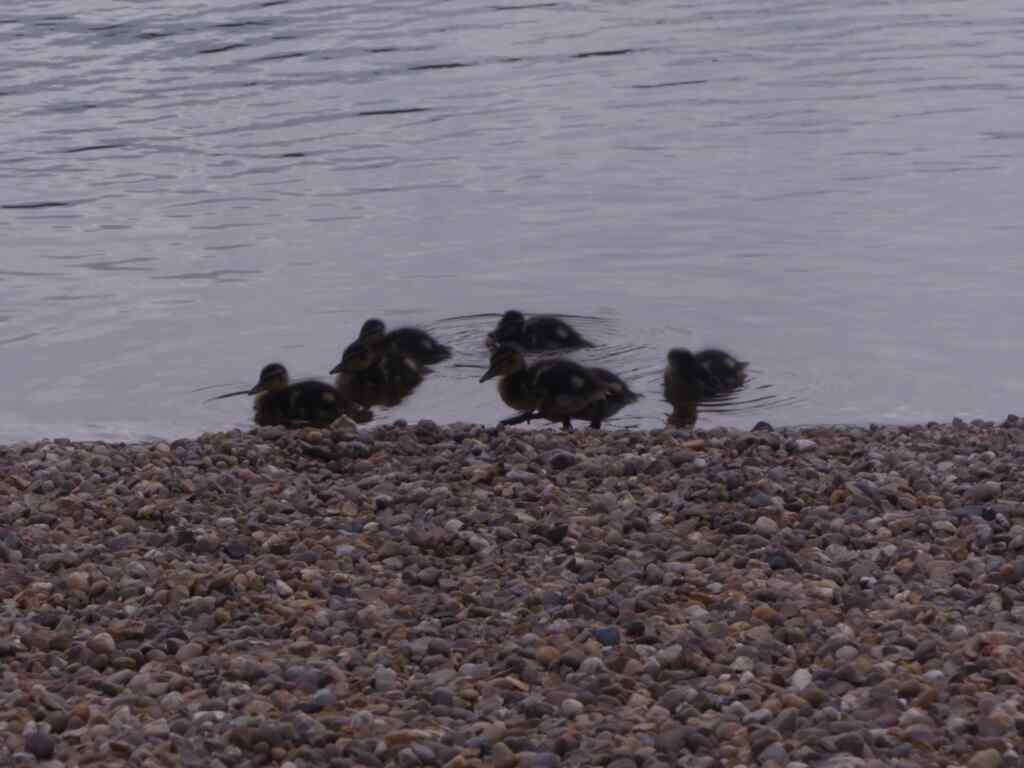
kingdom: Animalia
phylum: Chordata
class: Aves
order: Anseriformes
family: Anatidae
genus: Anas
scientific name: Anas platyrhynchos
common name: Mallard
